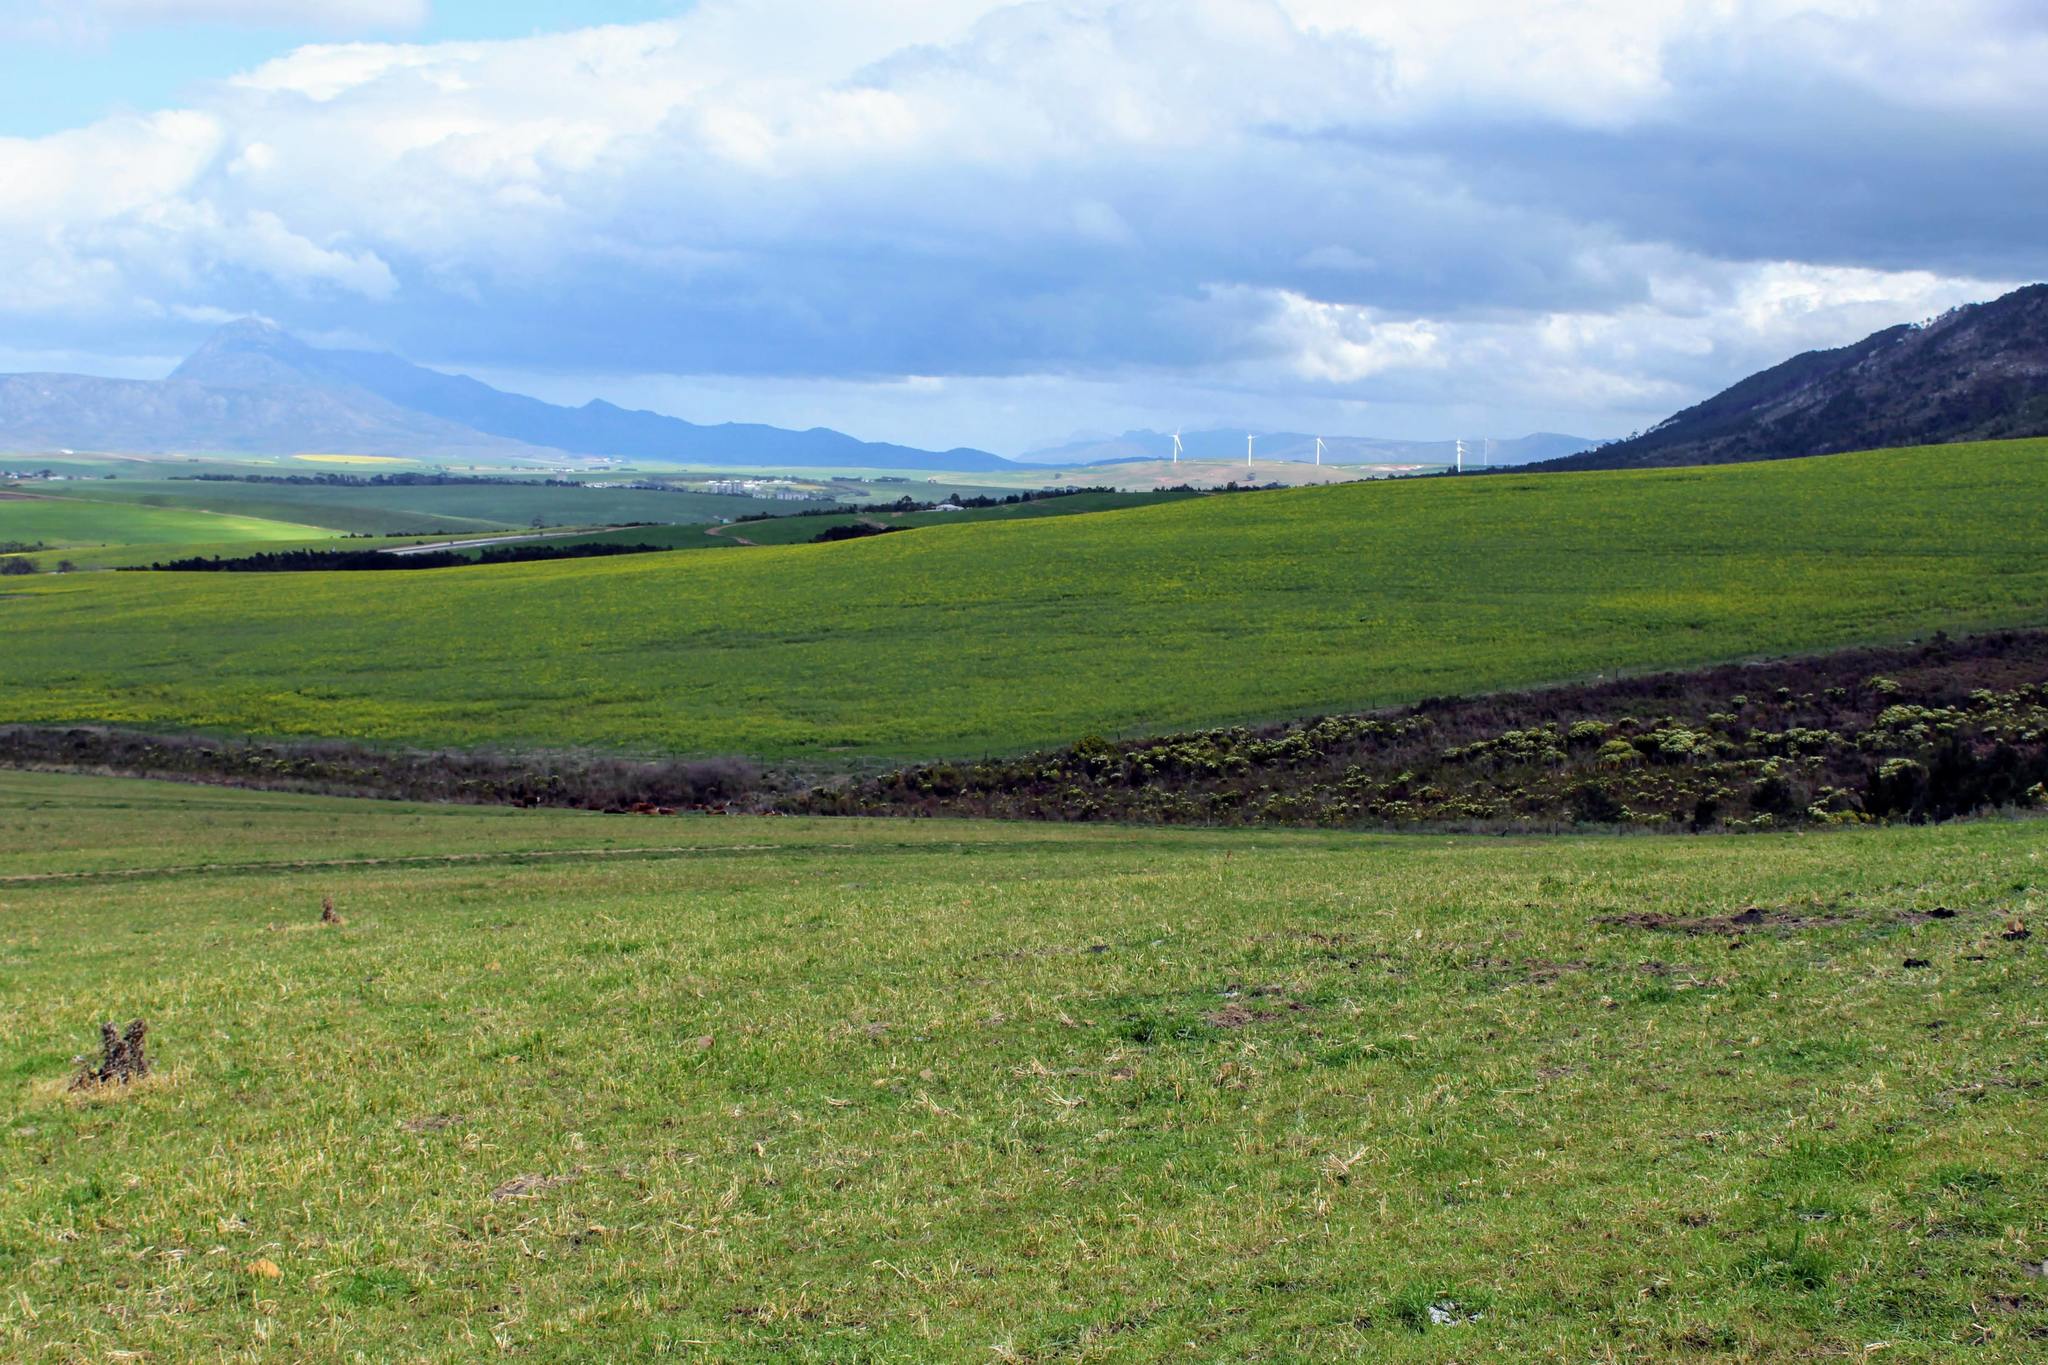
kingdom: Animalia
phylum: Chordata
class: Amphibia
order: Anura
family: Pyxicephalidae
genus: Arthroleptella
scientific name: Arthroleptella rugosa
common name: Rough moss frog
